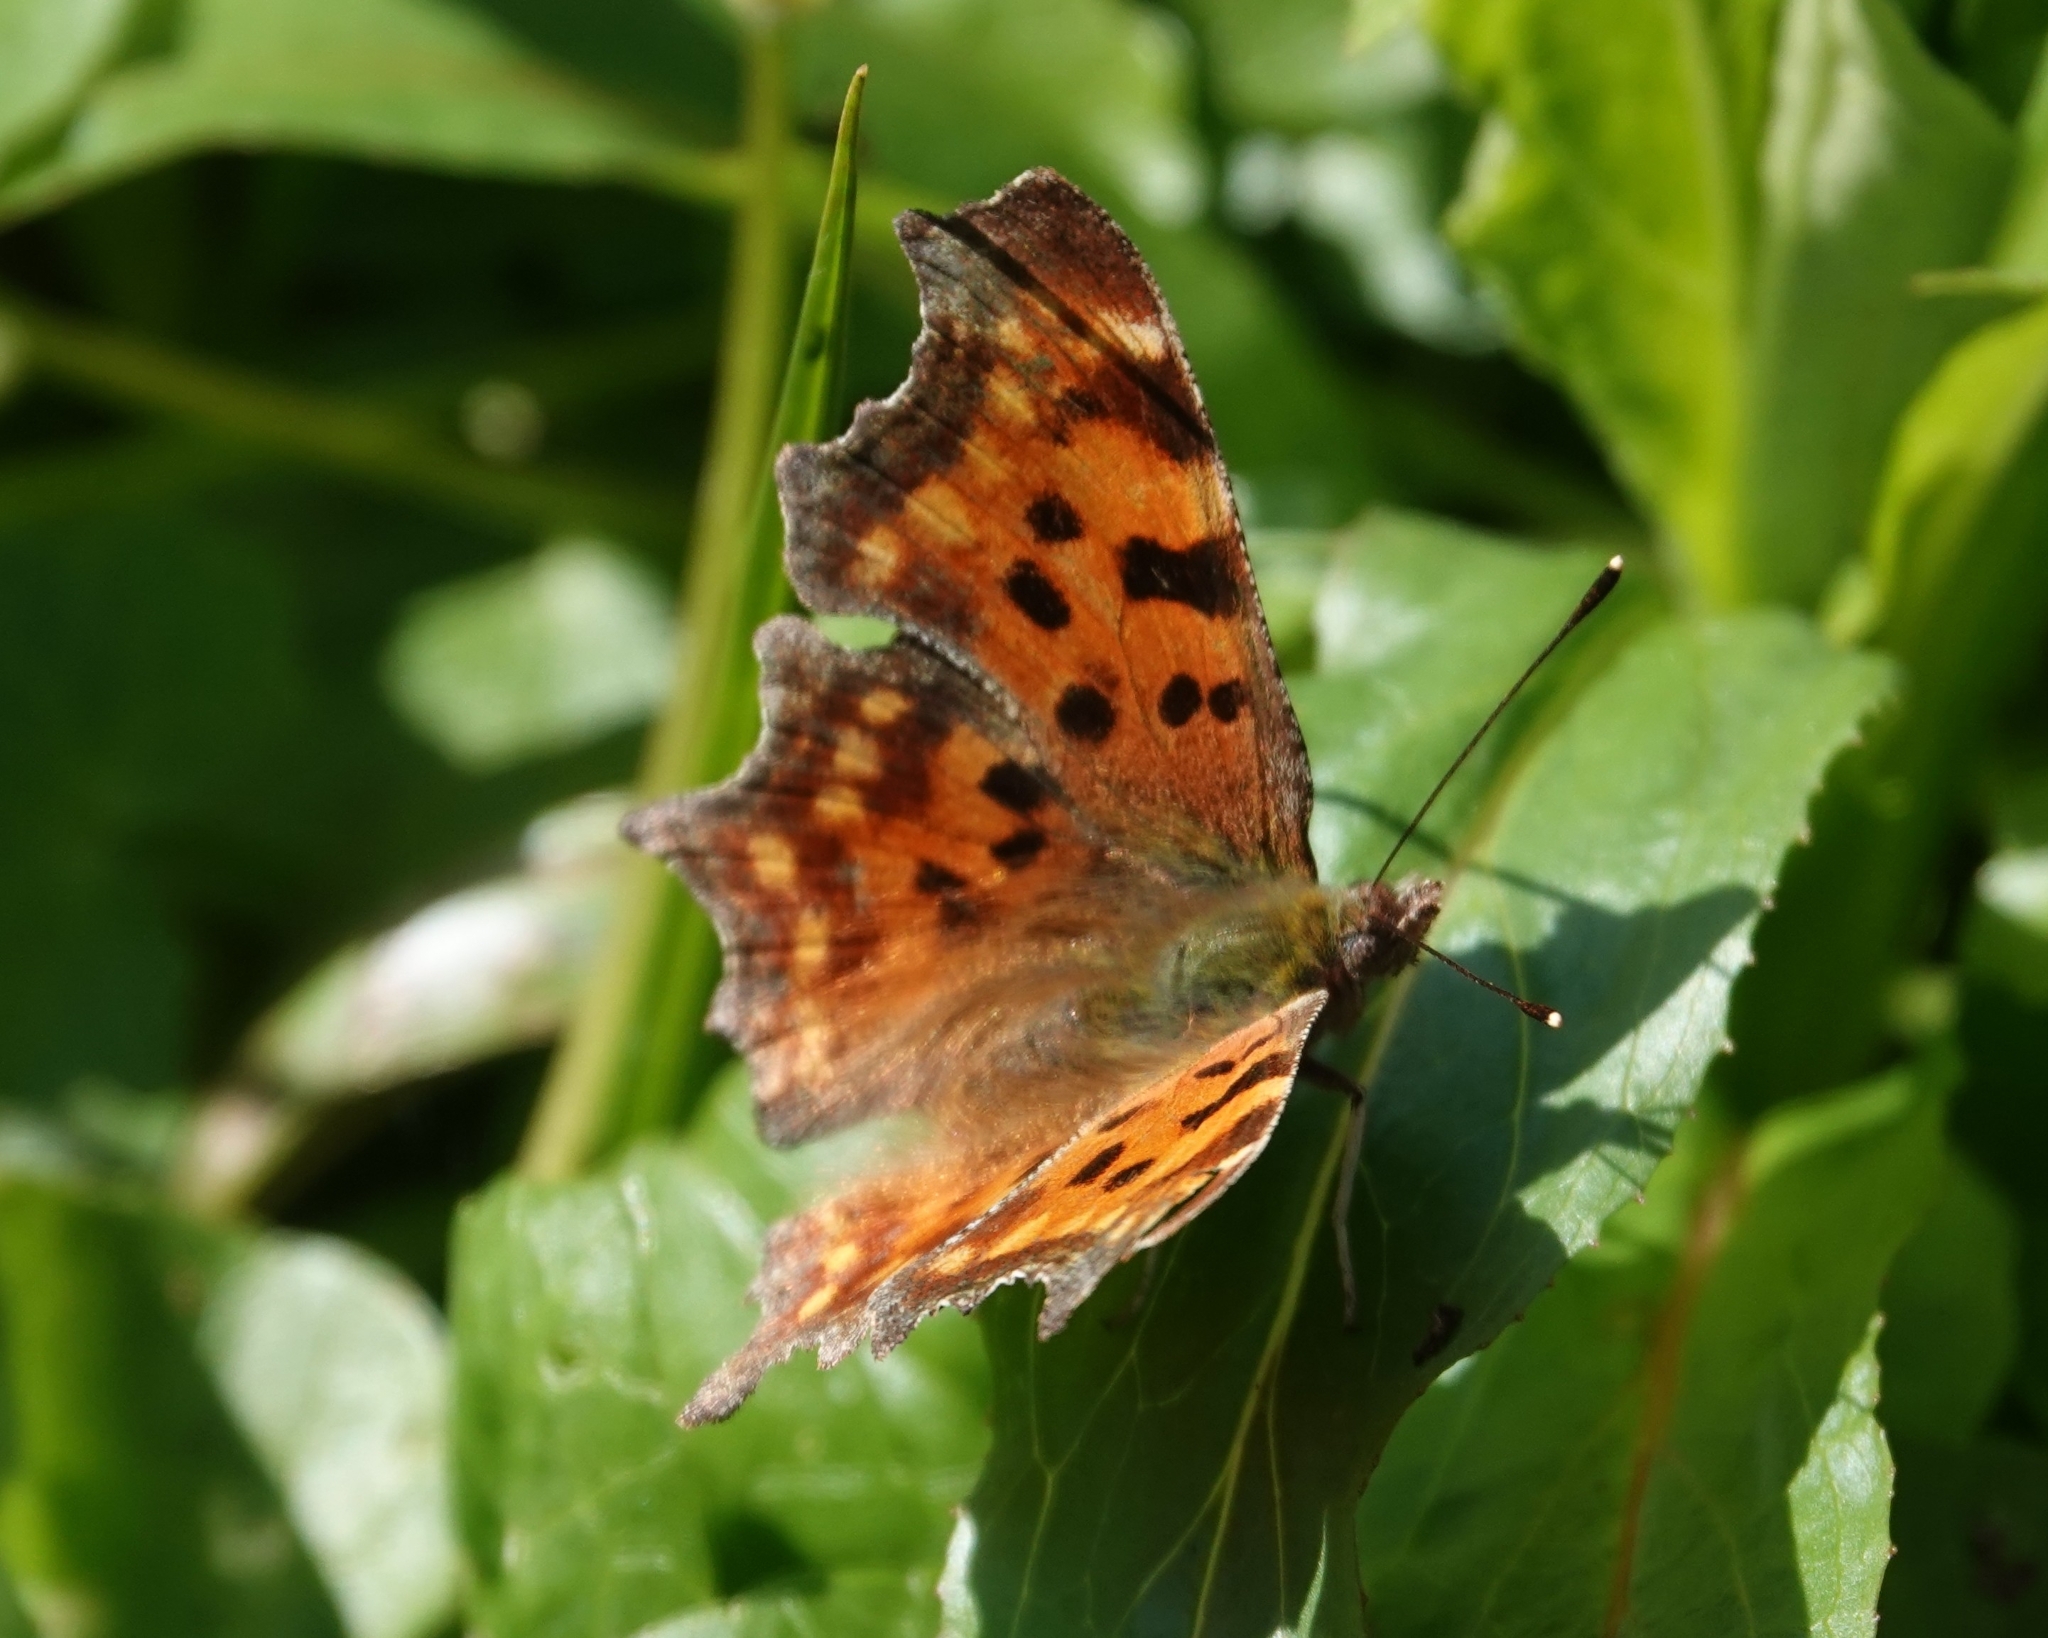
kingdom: Animalia
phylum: Arthropoda
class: Insecta
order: Lepidoptera
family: Nymphalidae
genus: Polygonia
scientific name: Polygonia c-album
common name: Comma
